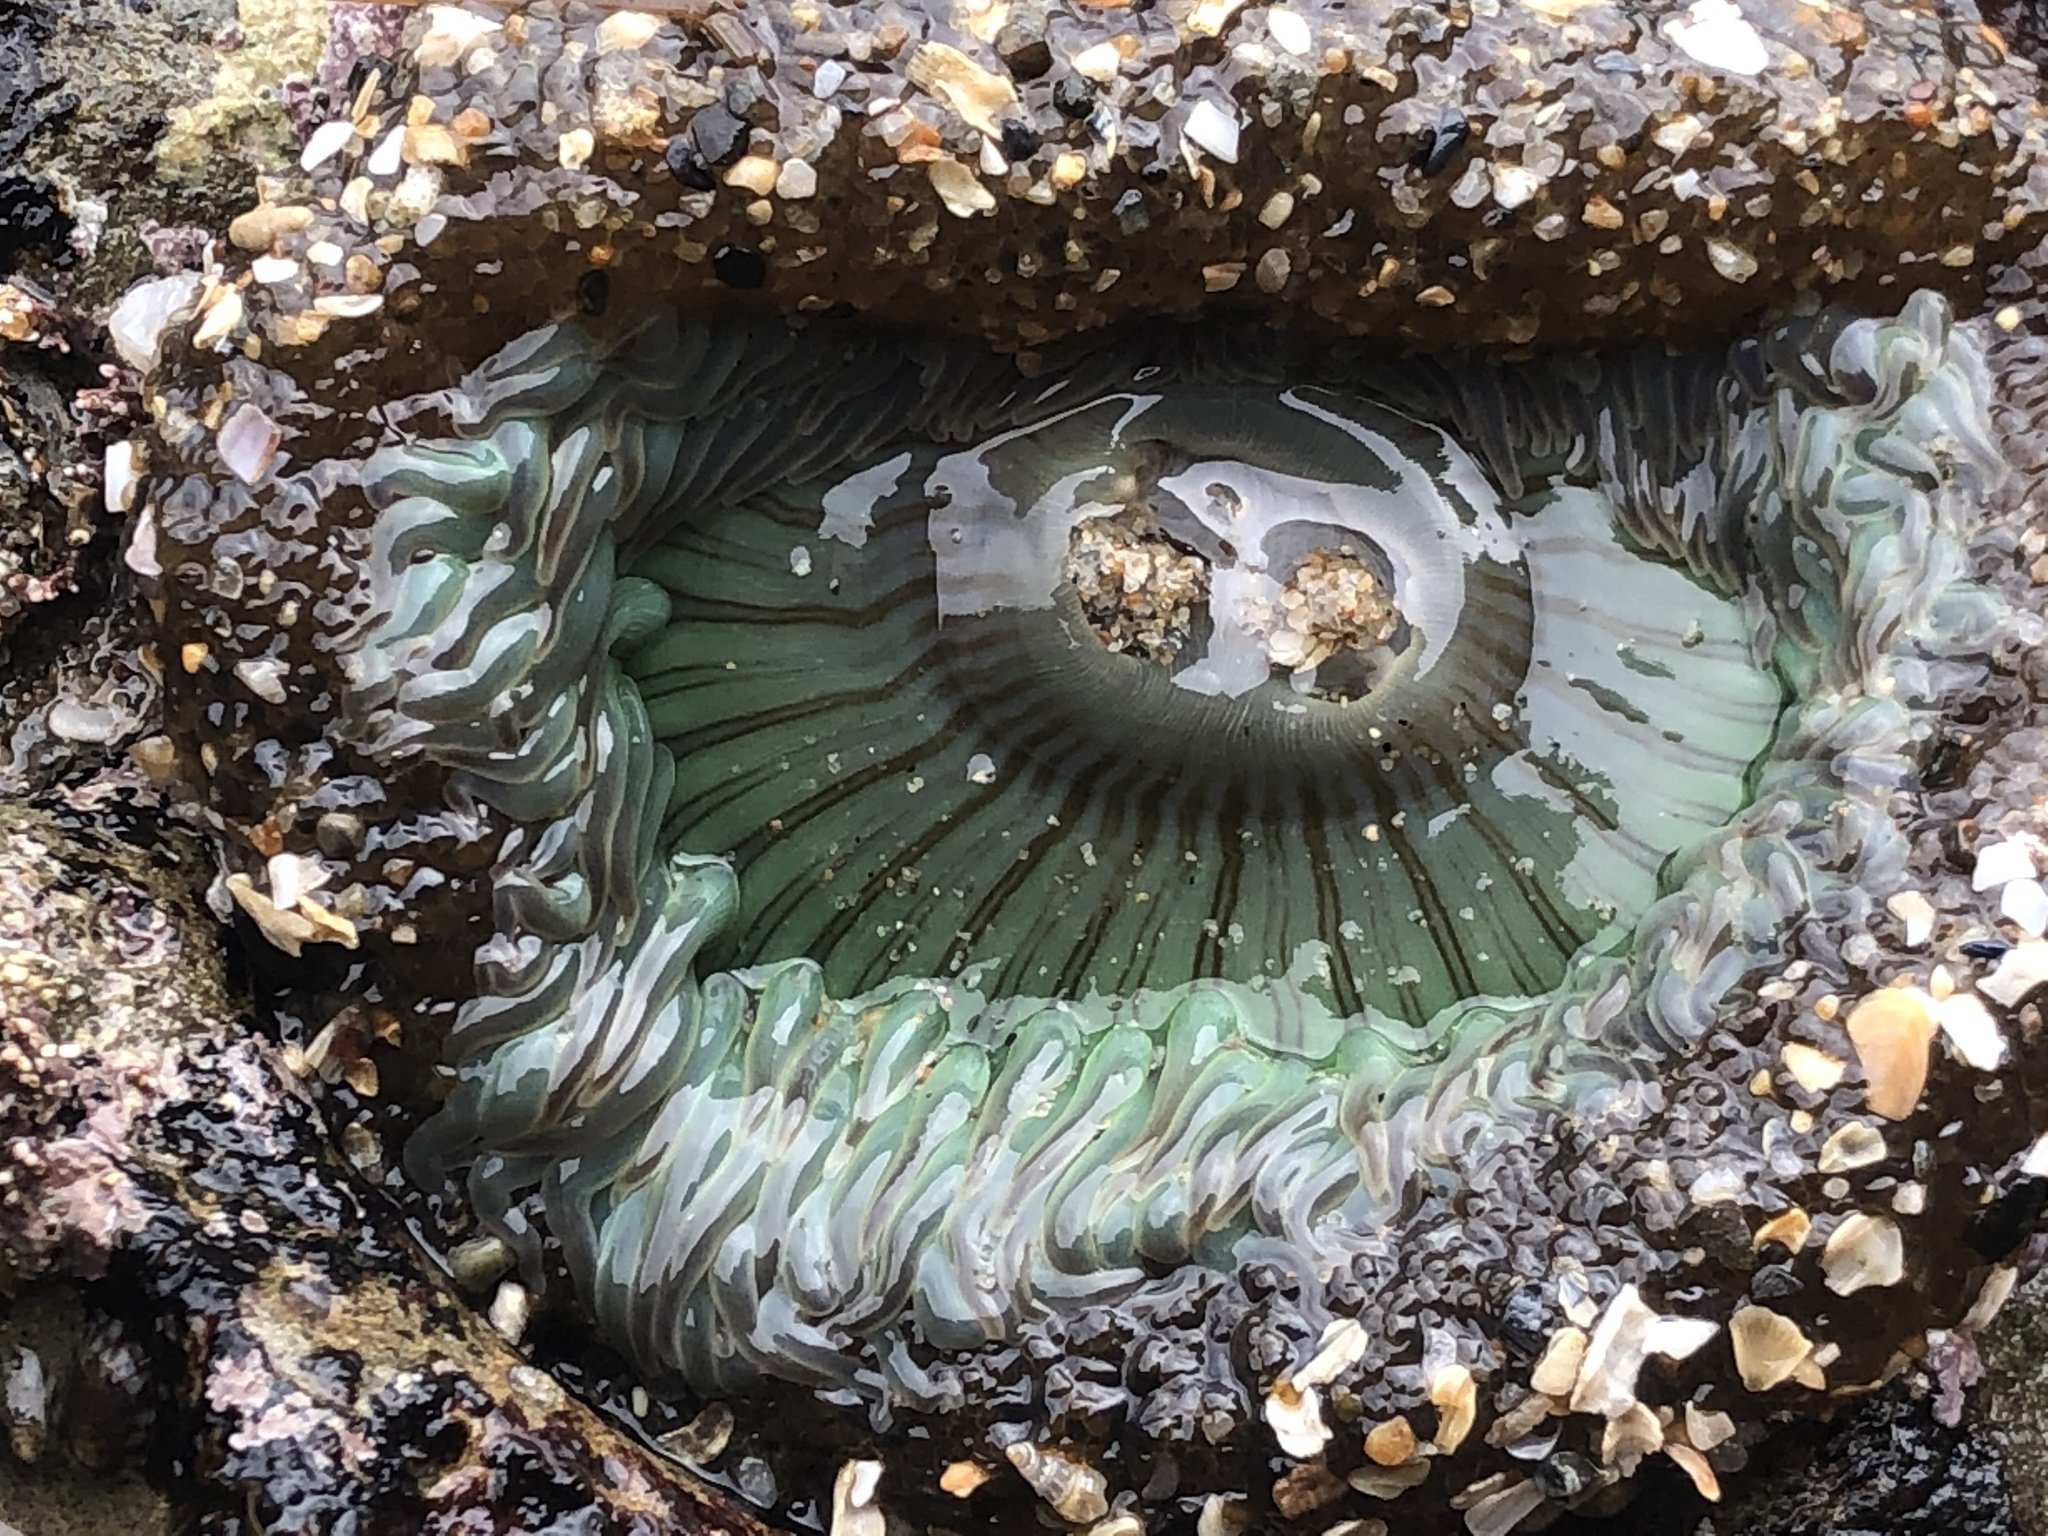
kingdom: Animalia
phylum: Cnidaria
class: Anthozoa
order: Actiniaria
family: Actiniidae
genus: Anthopleura
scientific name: Anthopleura sola
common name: Sun anemone
